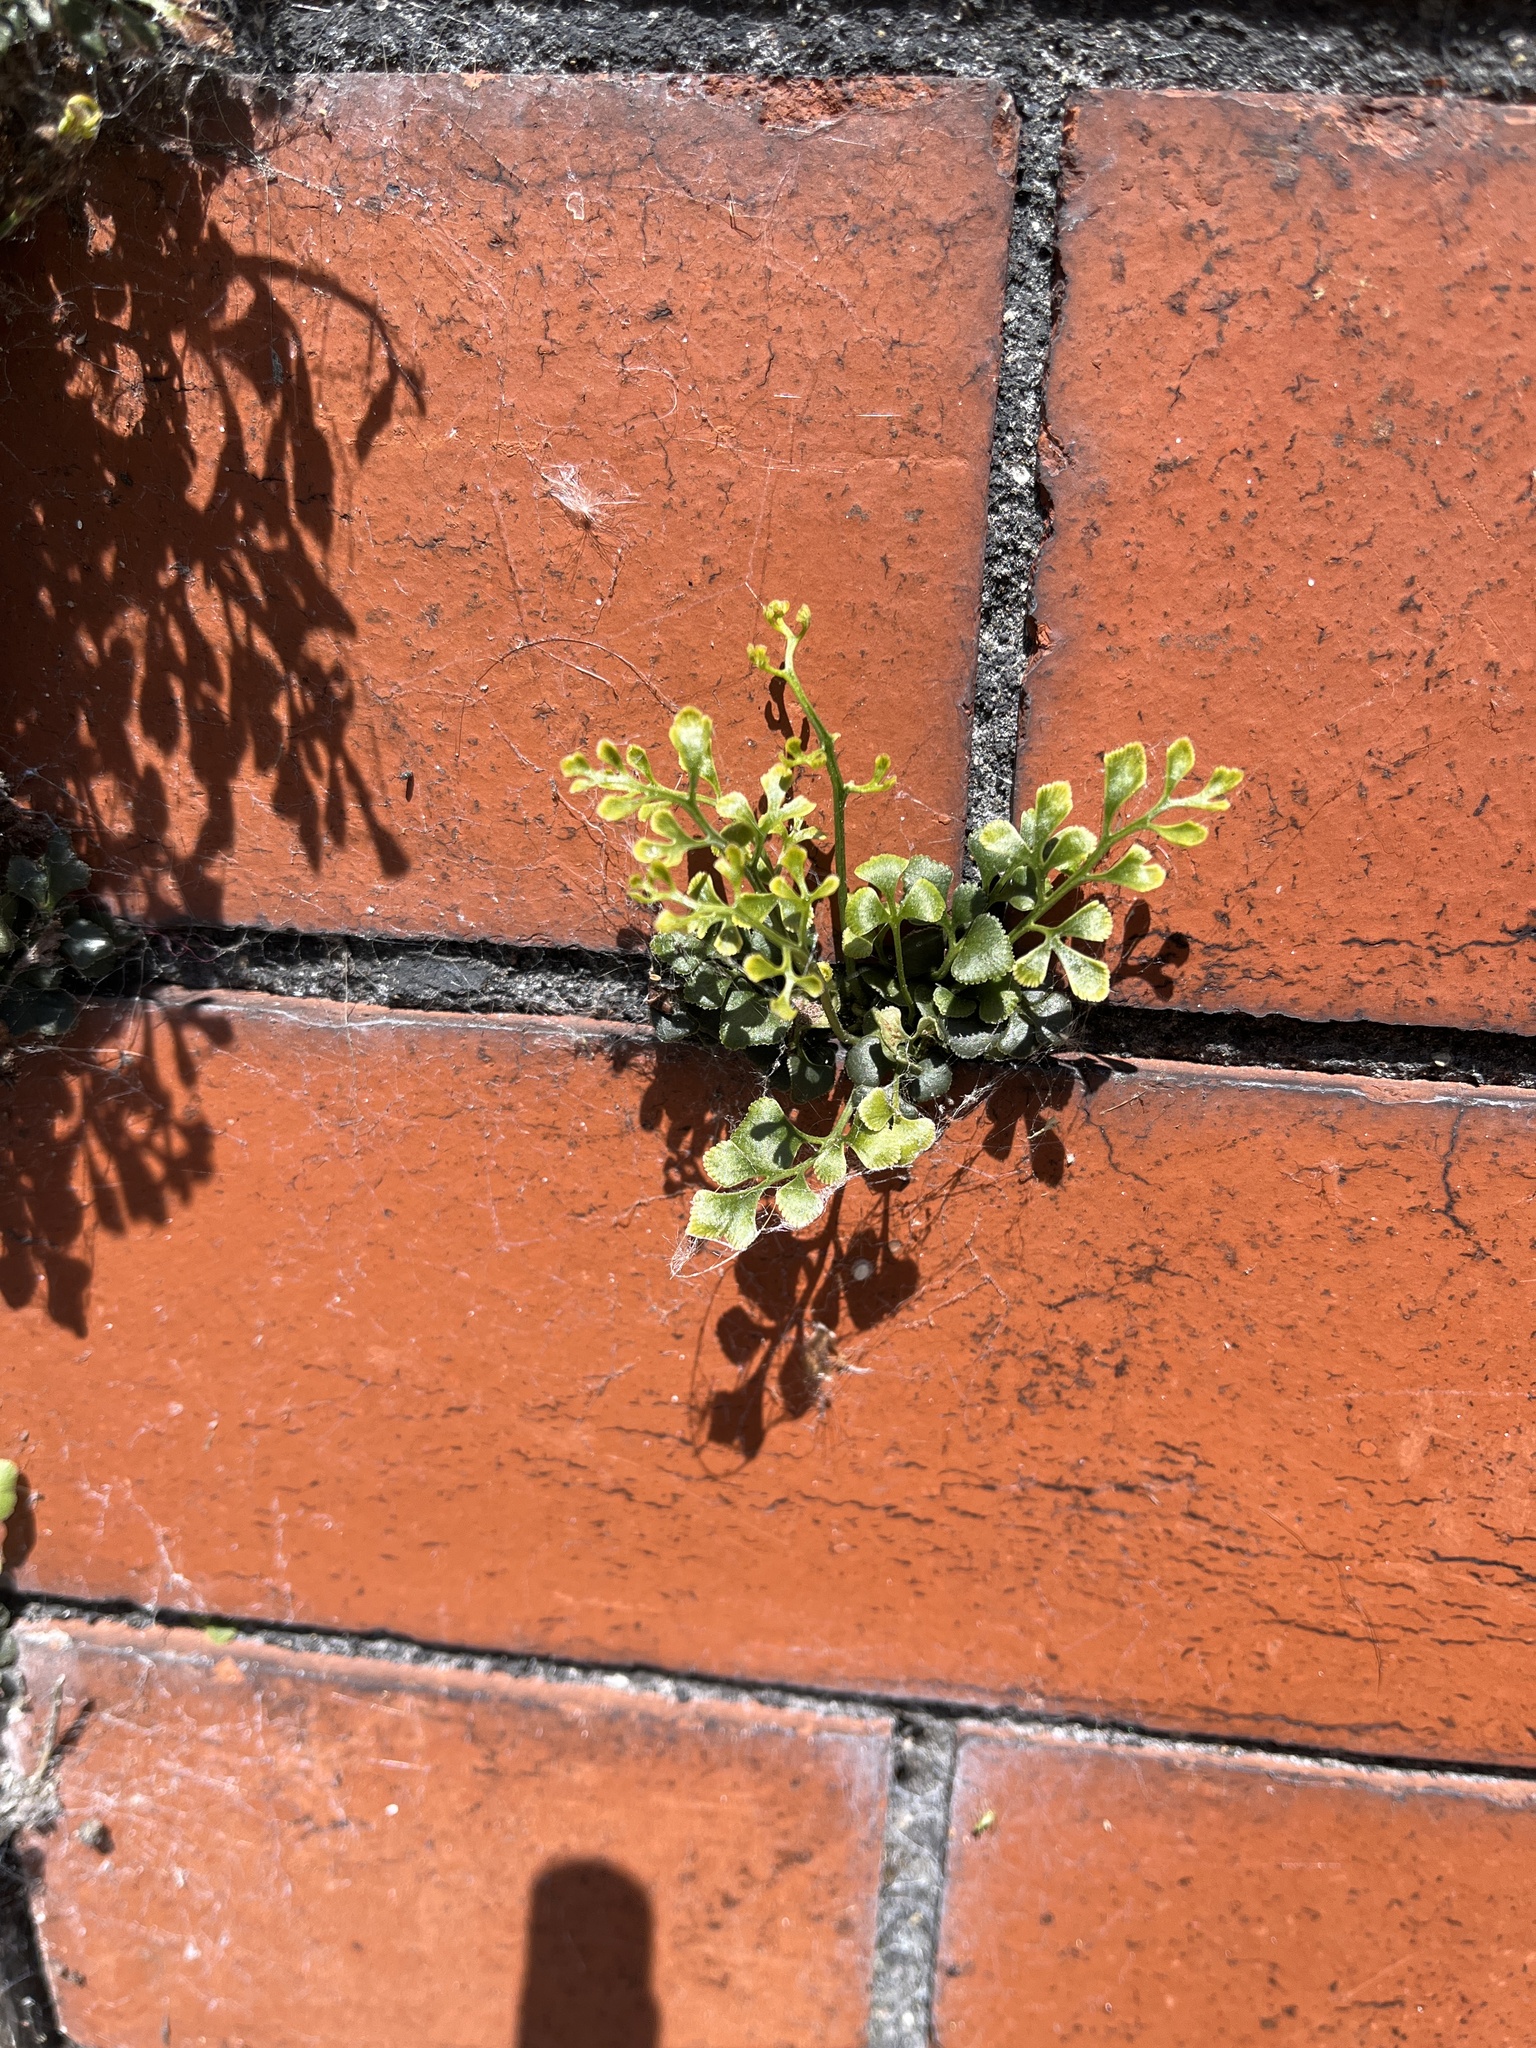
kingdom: Plantae
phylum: Tracheophyta
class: Polypodiopsida
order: Polypodiales
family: Aspleniaceae
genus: Asplenium
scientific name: Asplenium ruta-muraria
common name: Wall-rue
